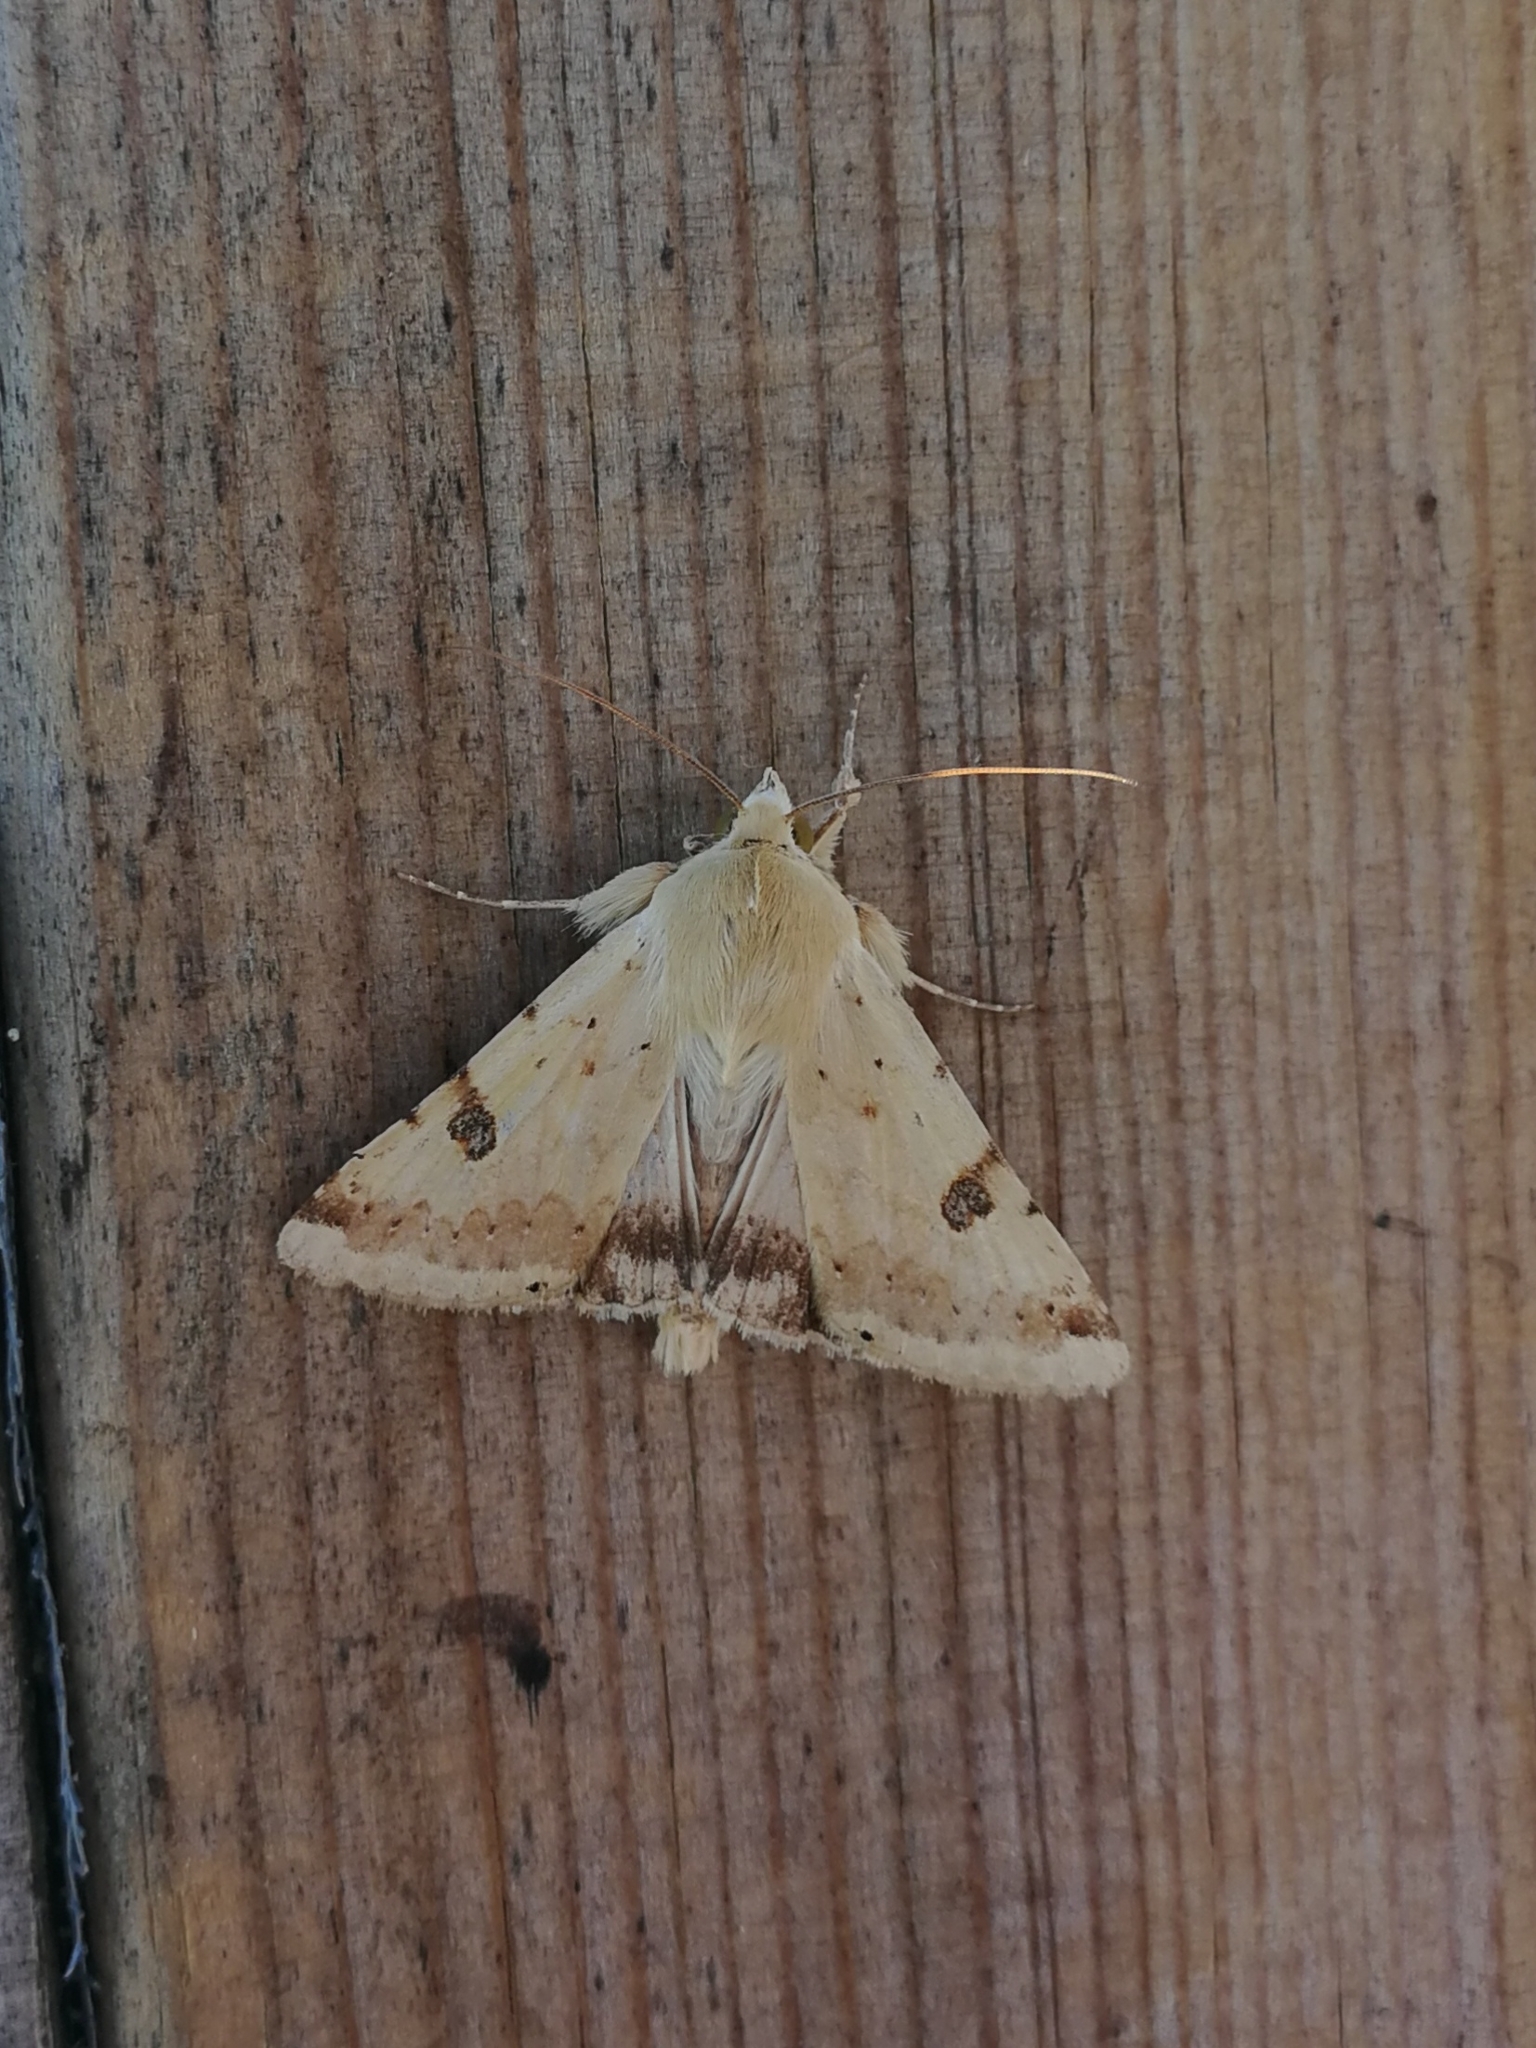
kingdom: Animalia
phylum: Arthropoda
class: Insecta
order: Lepidoptera
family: Noctuidae
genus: Heliothis
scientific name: Heliothis peltigera
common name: Bordered straw
